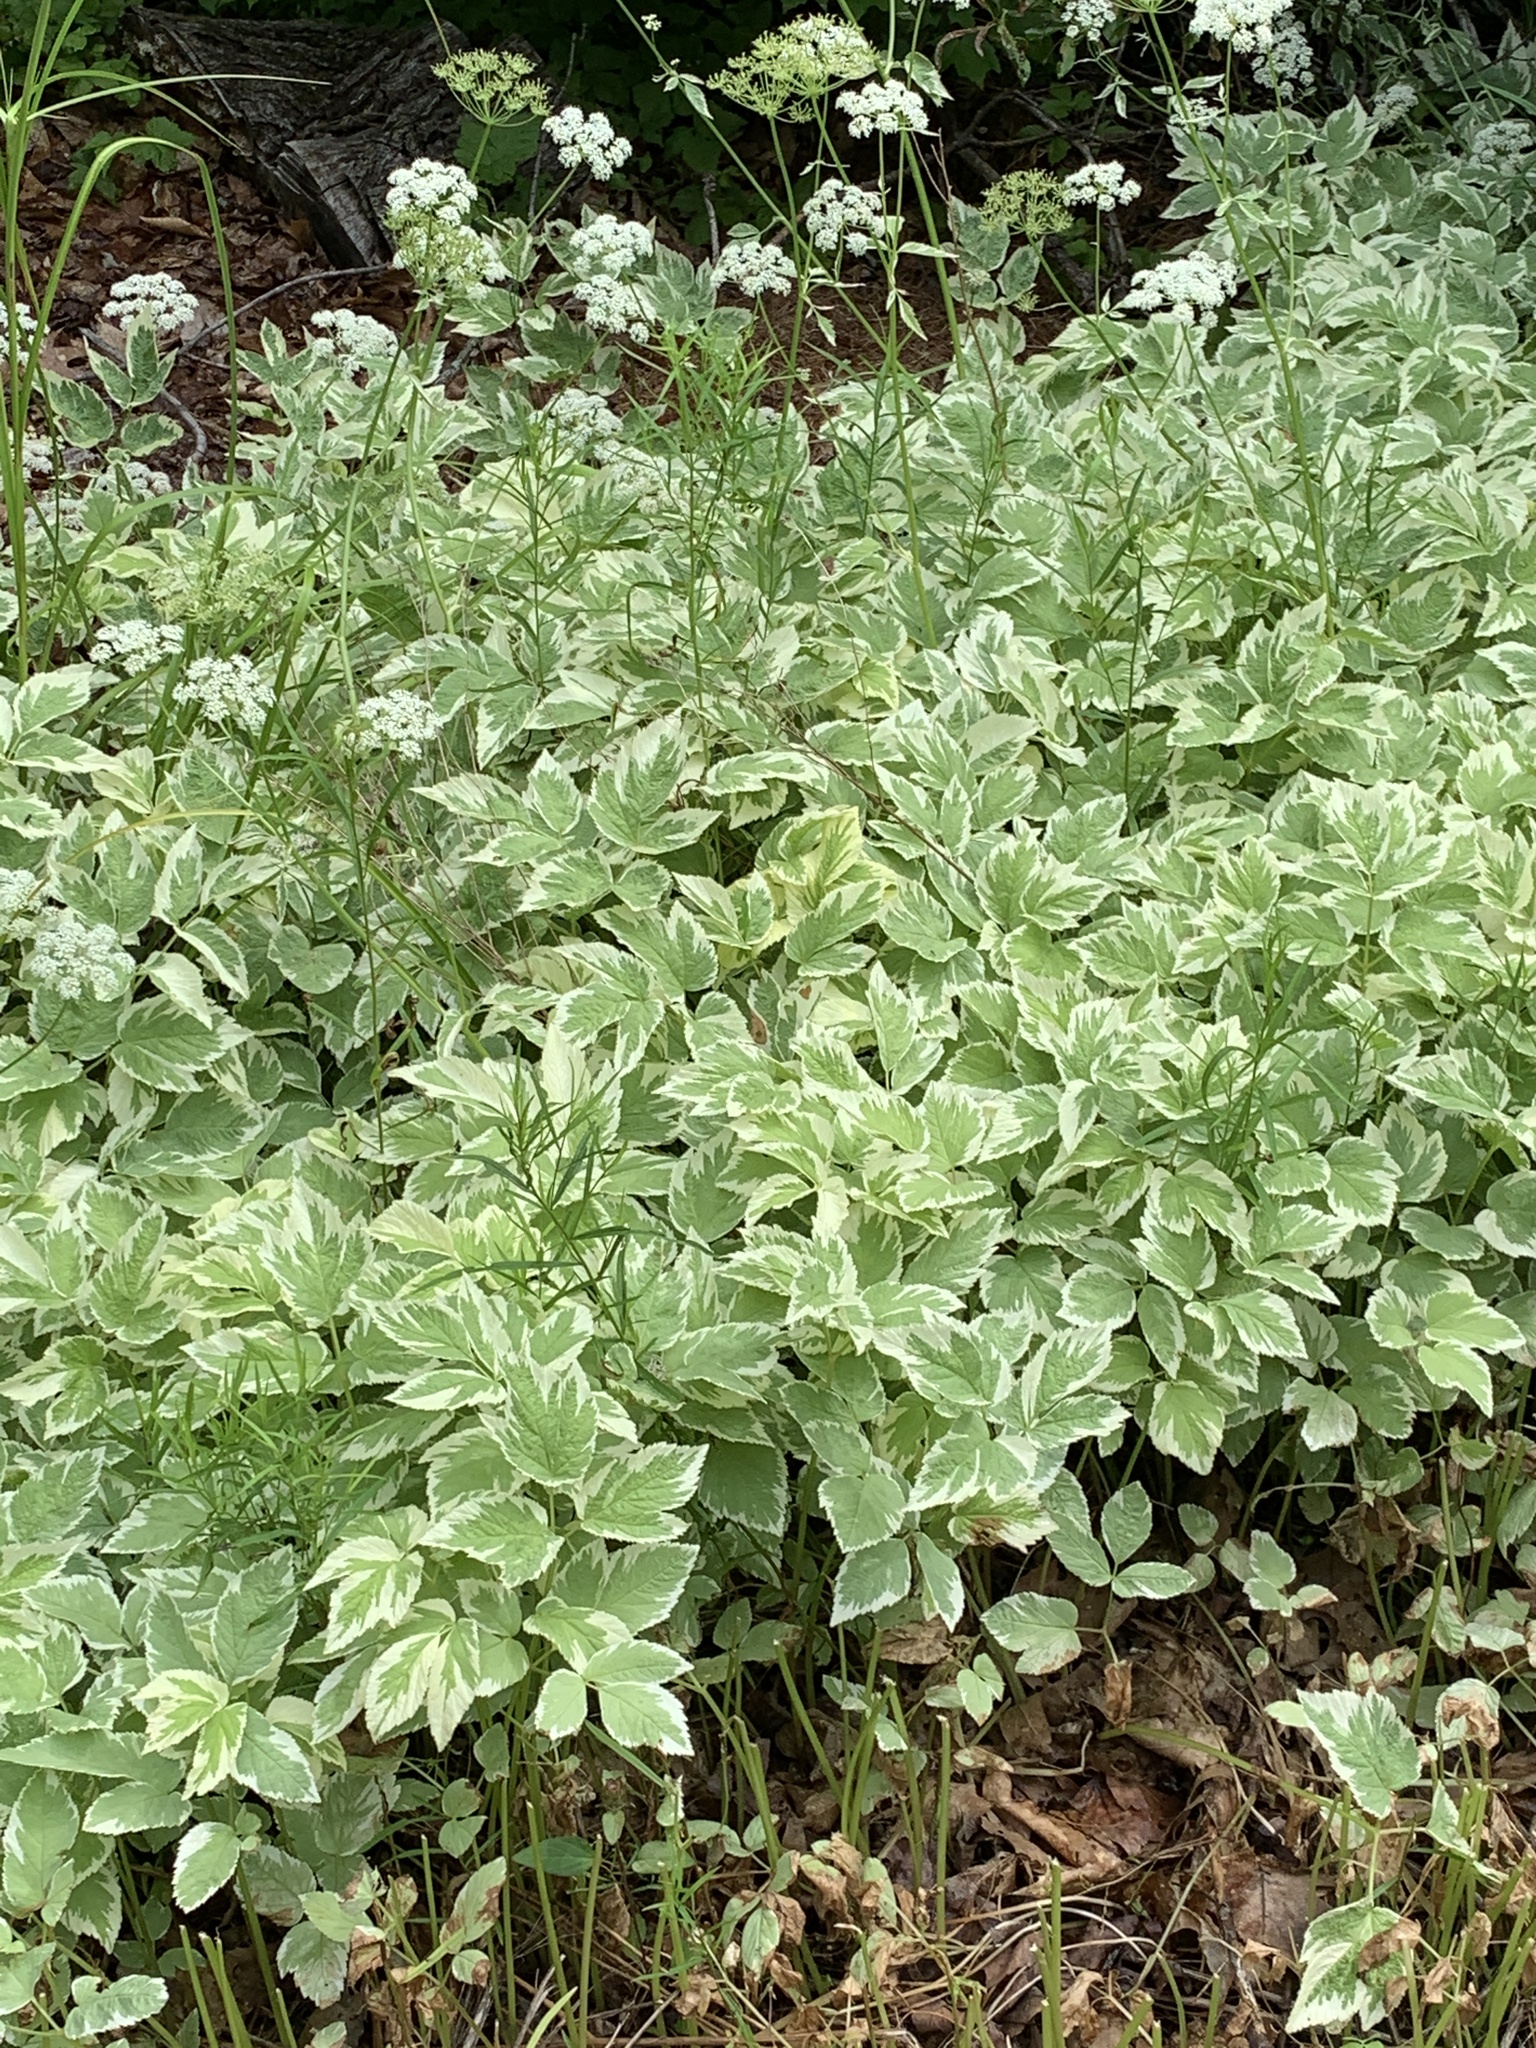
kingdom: Plantae
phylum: Tracheophyta
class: Magnoliopsida
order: Apiales
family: Apiaceae
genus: Aegopodium
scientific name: Aegopodium podagraria
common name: Ground-elder
